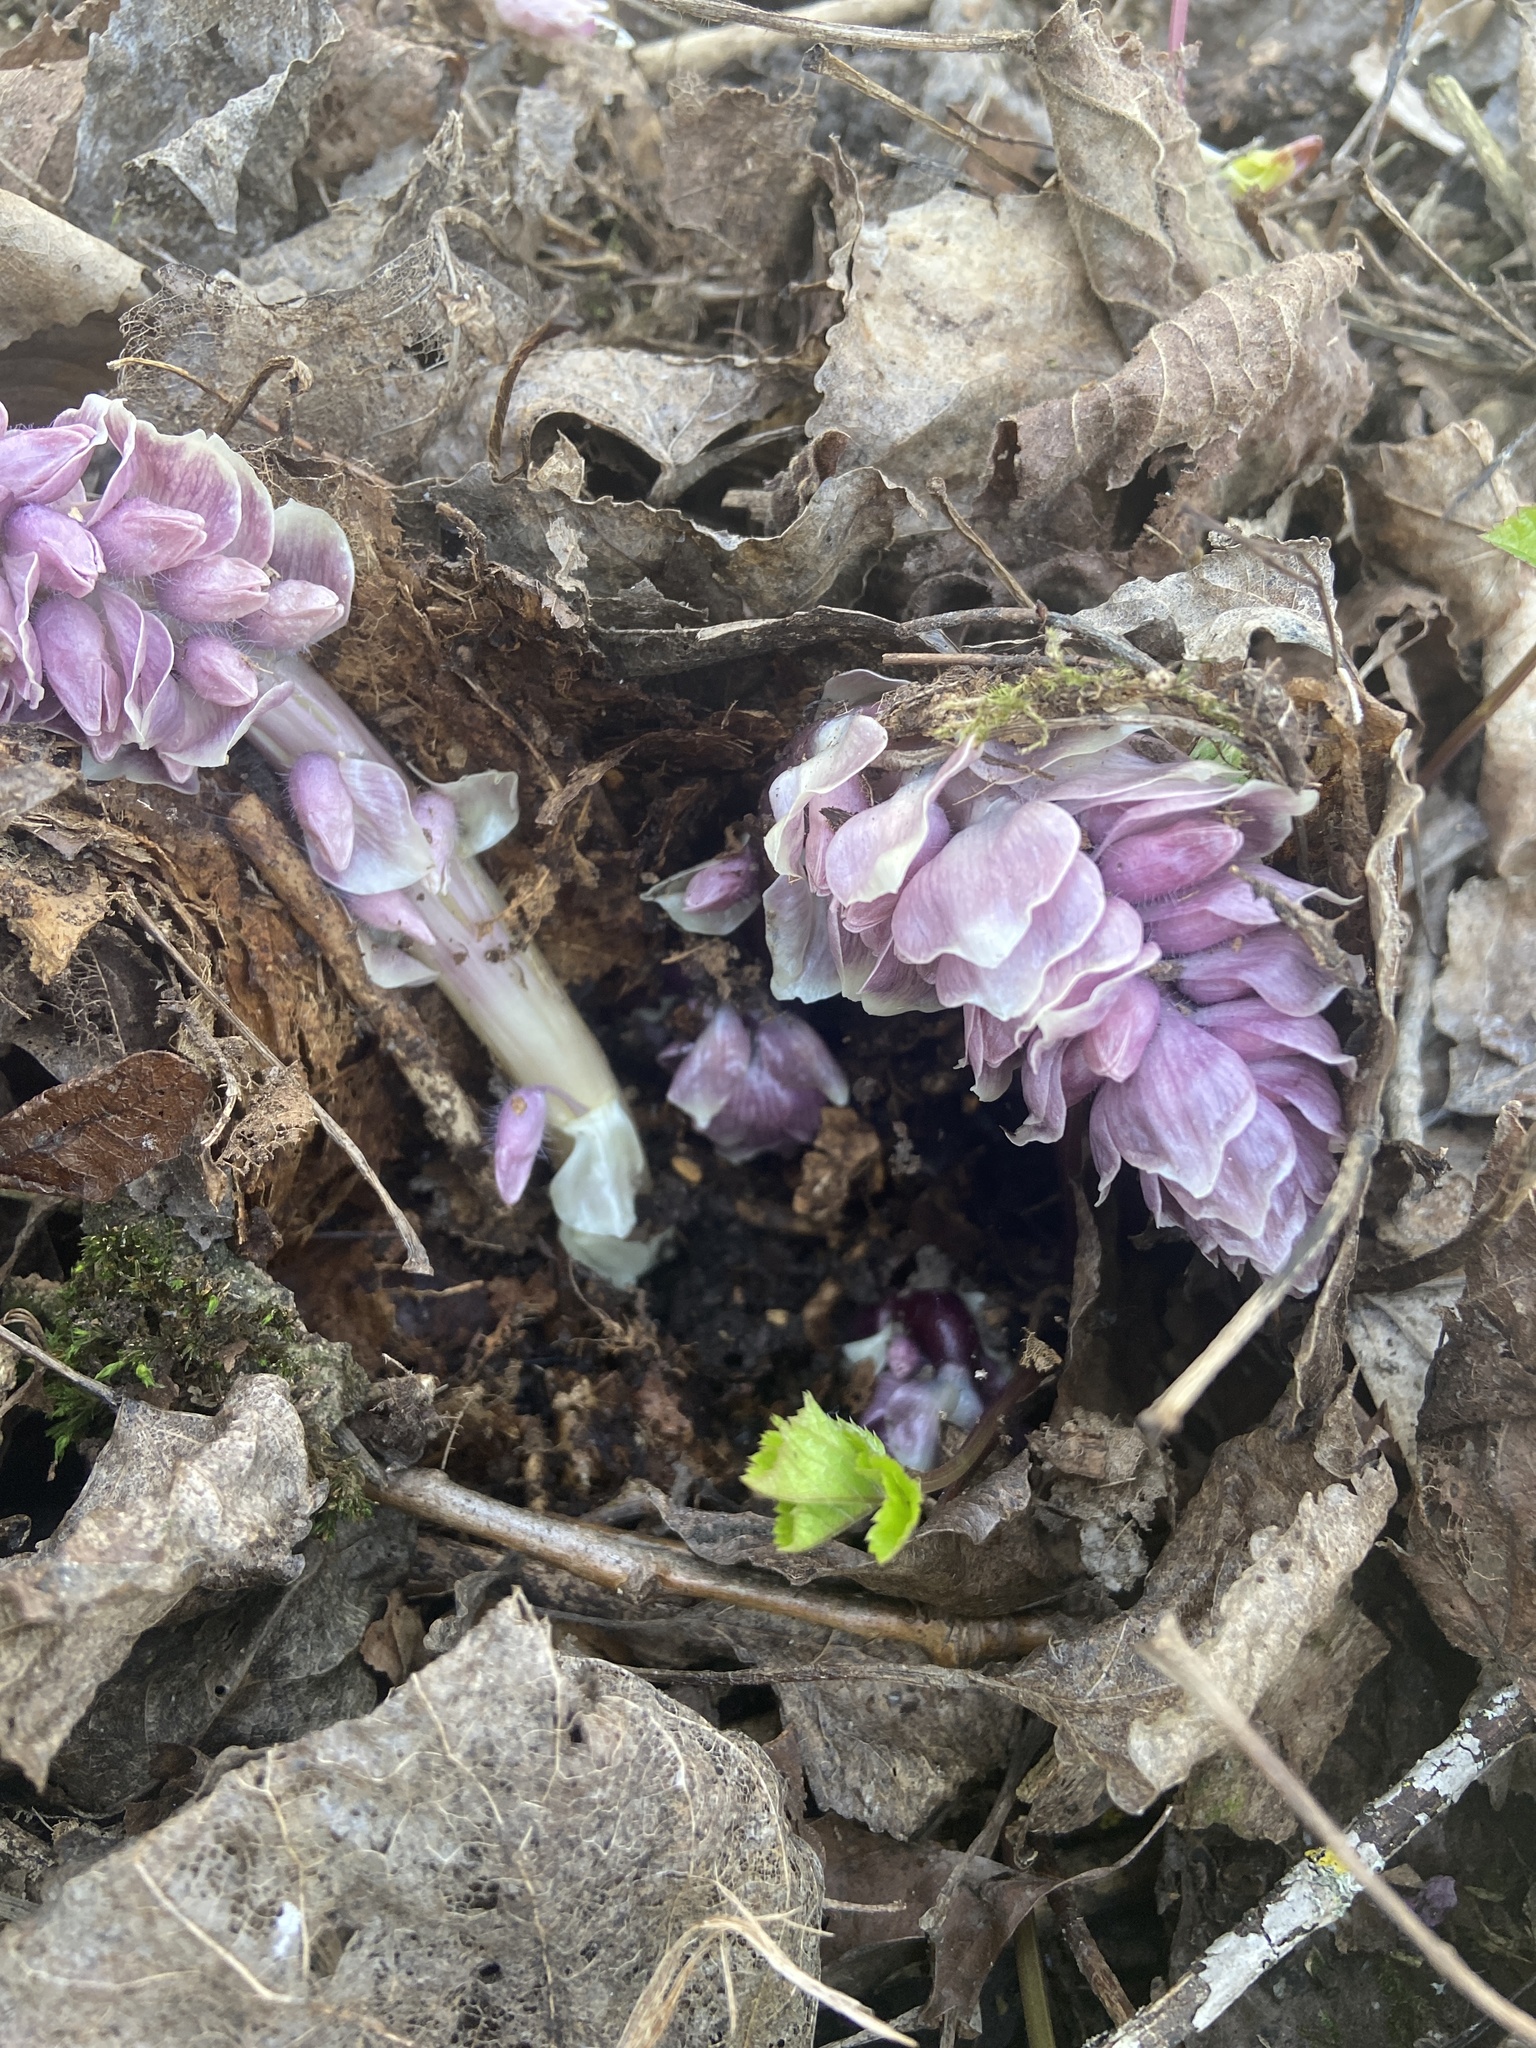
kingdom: Plantae
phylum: Tracheophyta
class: Magnoliopsida
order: Lamiales
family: Orobanchaceae
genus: Lathraea
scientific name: Lathraea squamaria
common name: Toothwort
